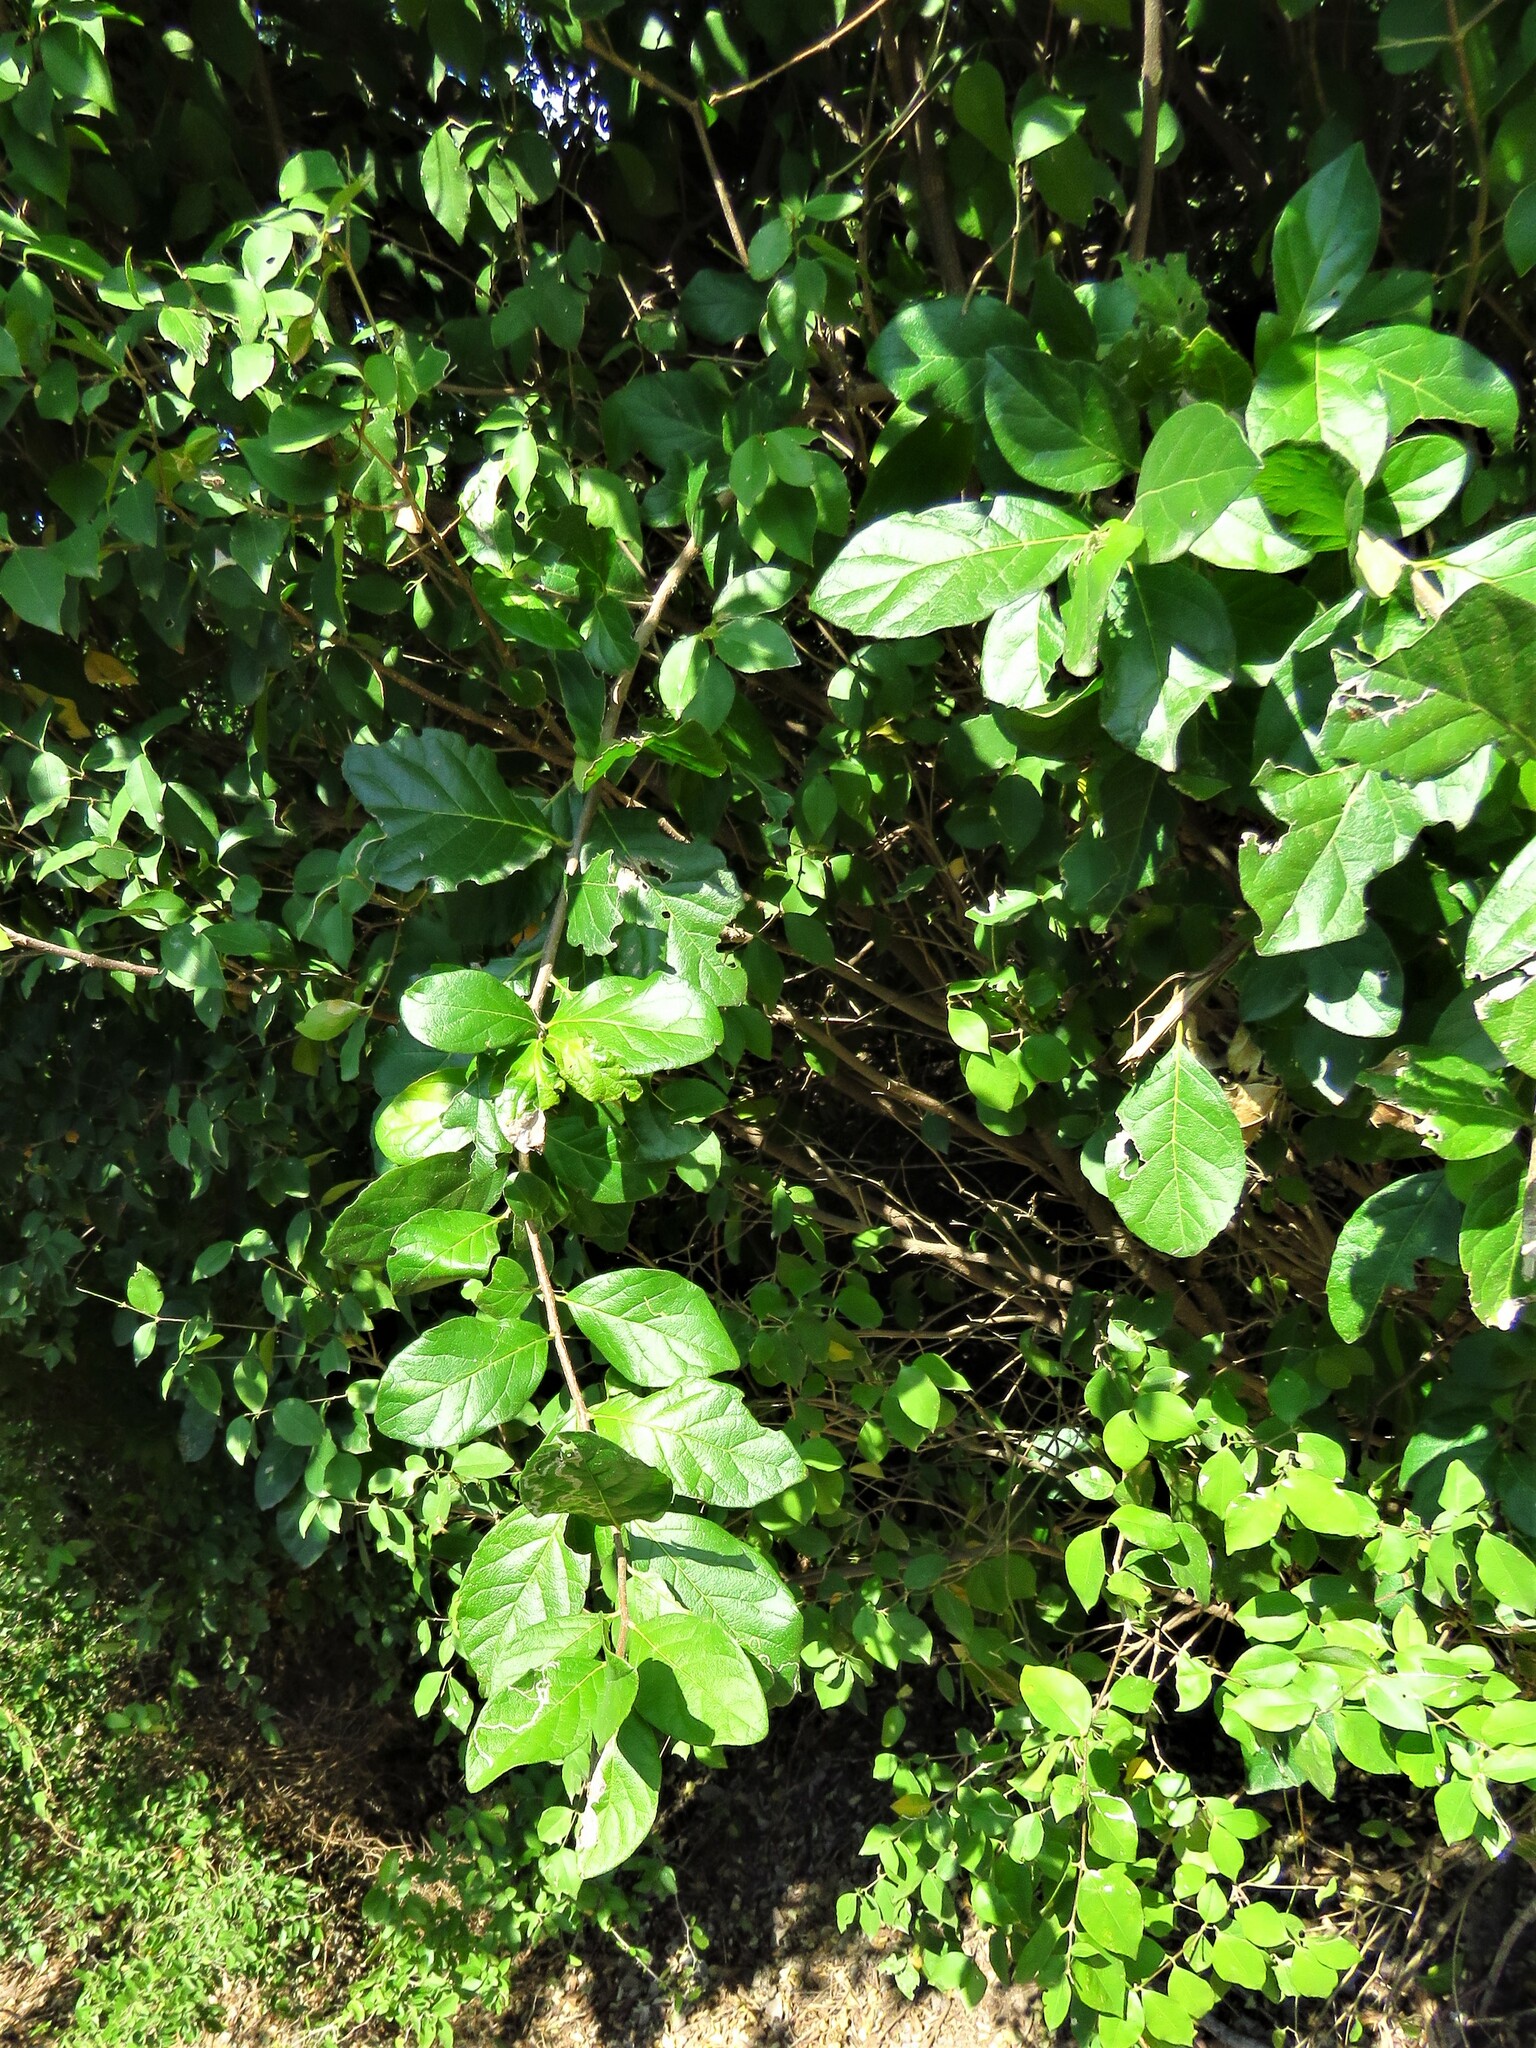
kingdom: Plantae
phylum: Tracheophyta
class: Magnoliopsida
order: Boraginales
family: Ehretiaceae
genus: Ehretia
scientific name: Ehretia anacua
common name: Sugarberry
